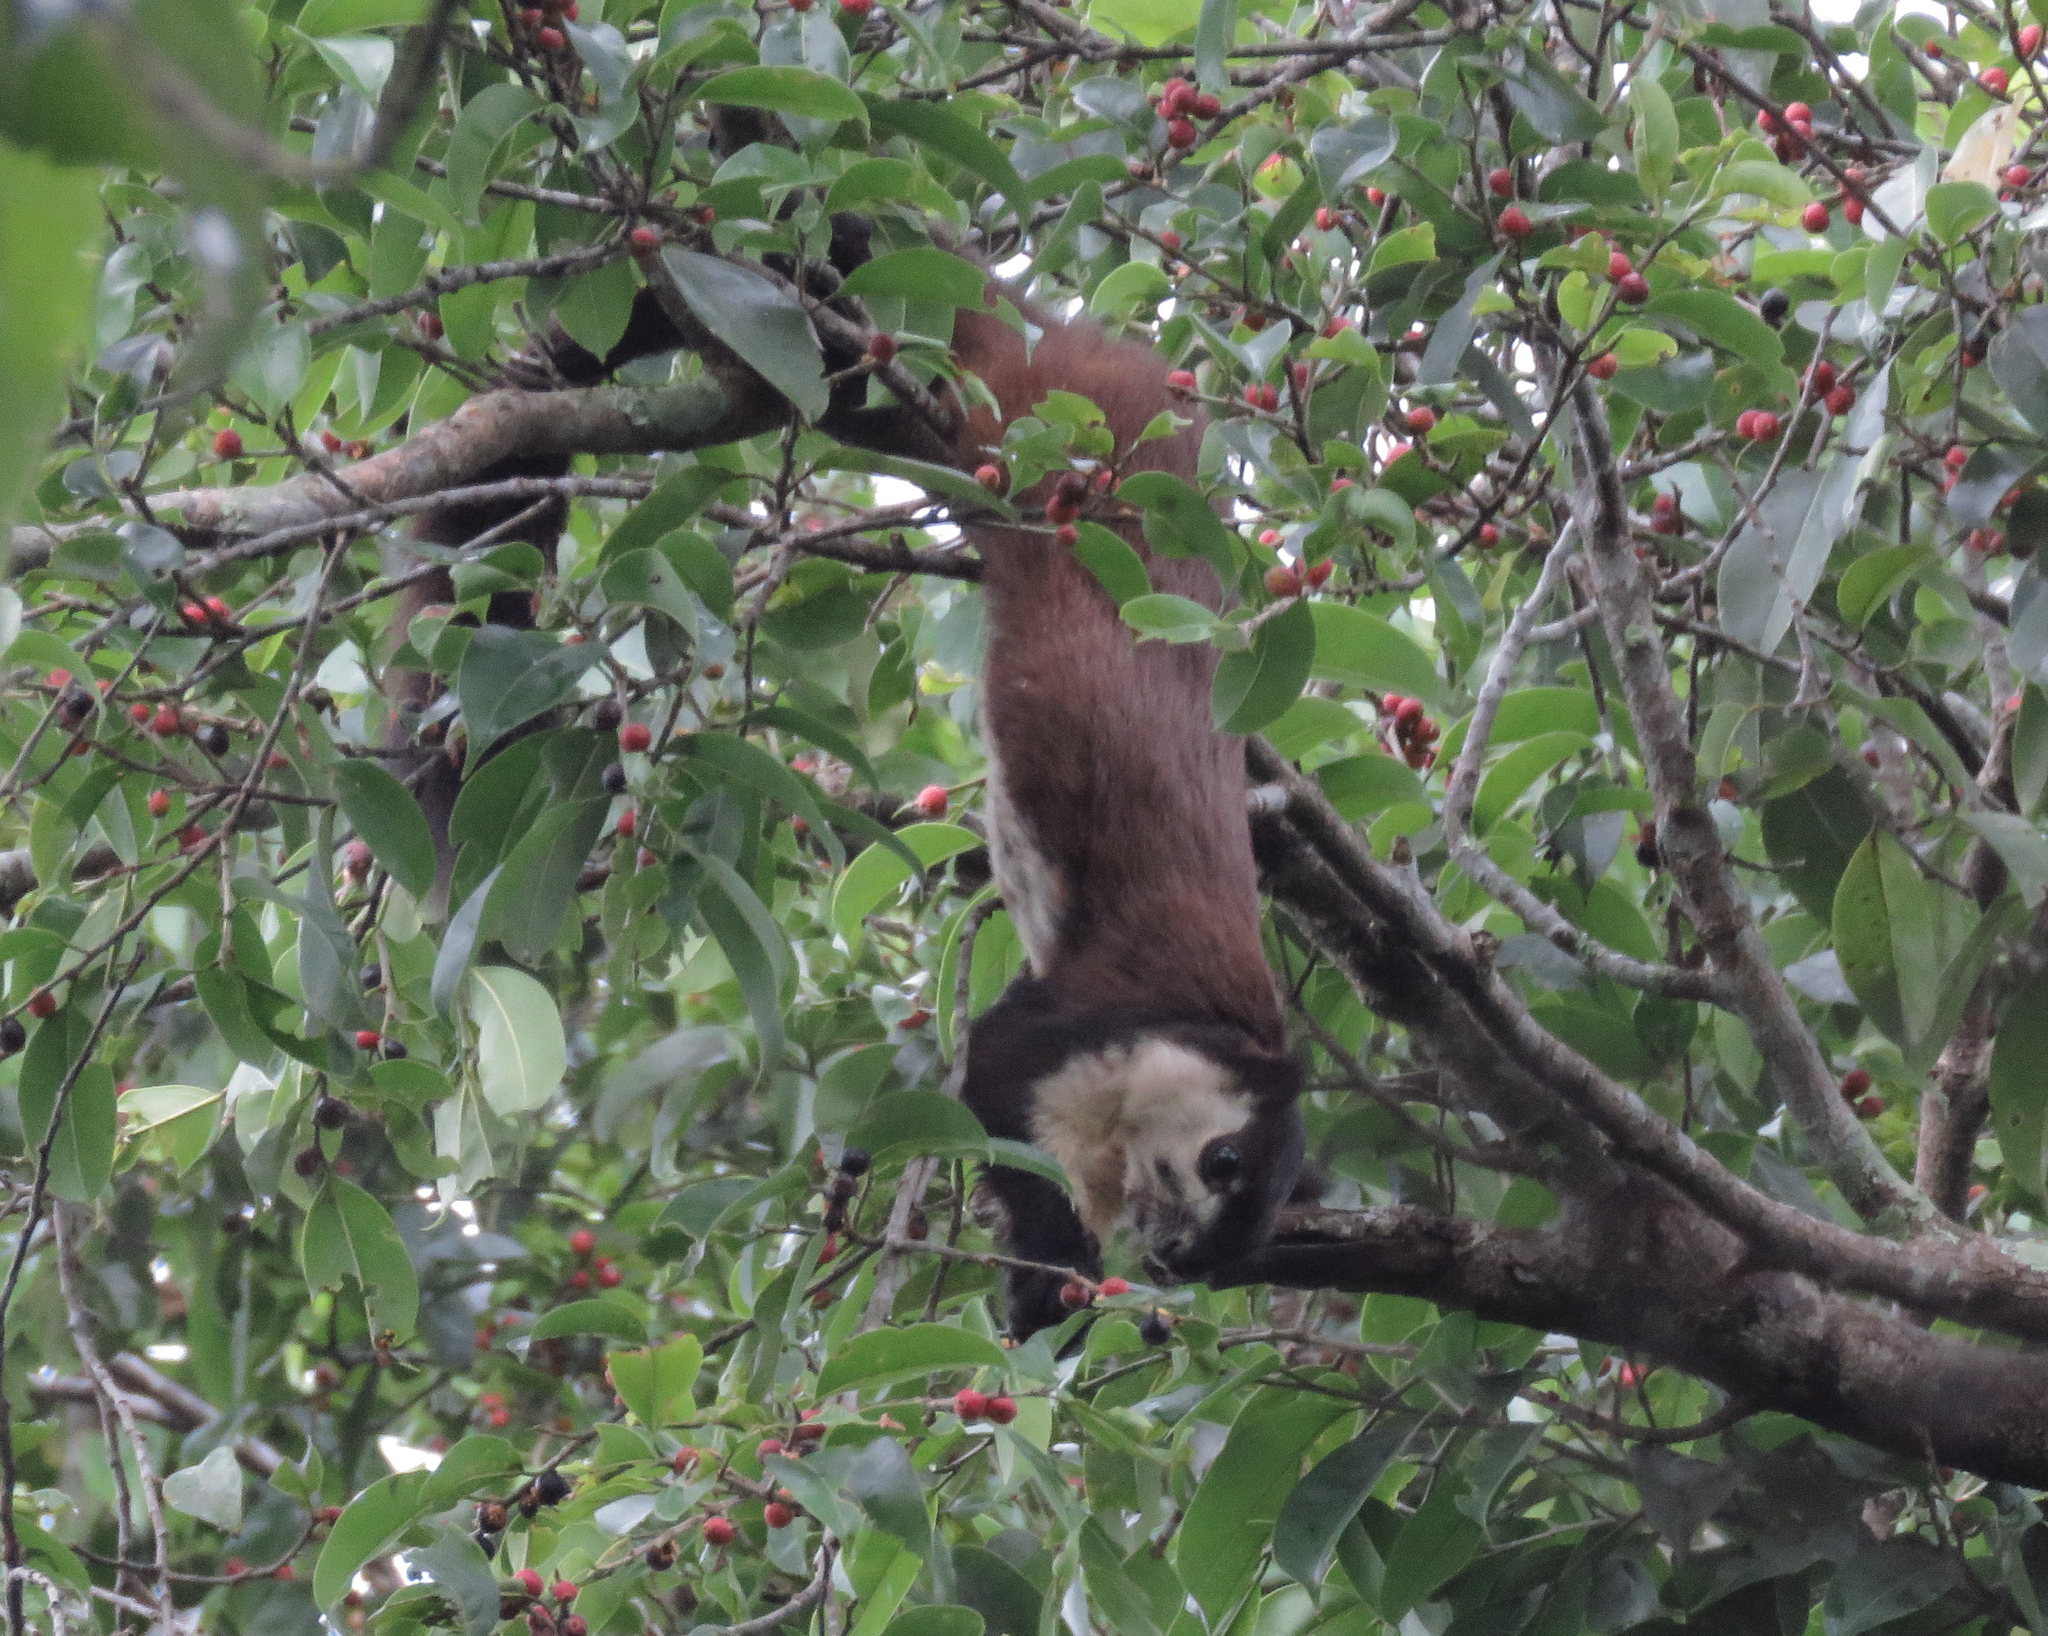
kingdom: Animalia
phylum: Chordata
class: Mammalia
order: Rodentia
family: Sciuridae
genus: Ratufa
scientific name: Ratufa bicolor
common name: Black giant squirrel
